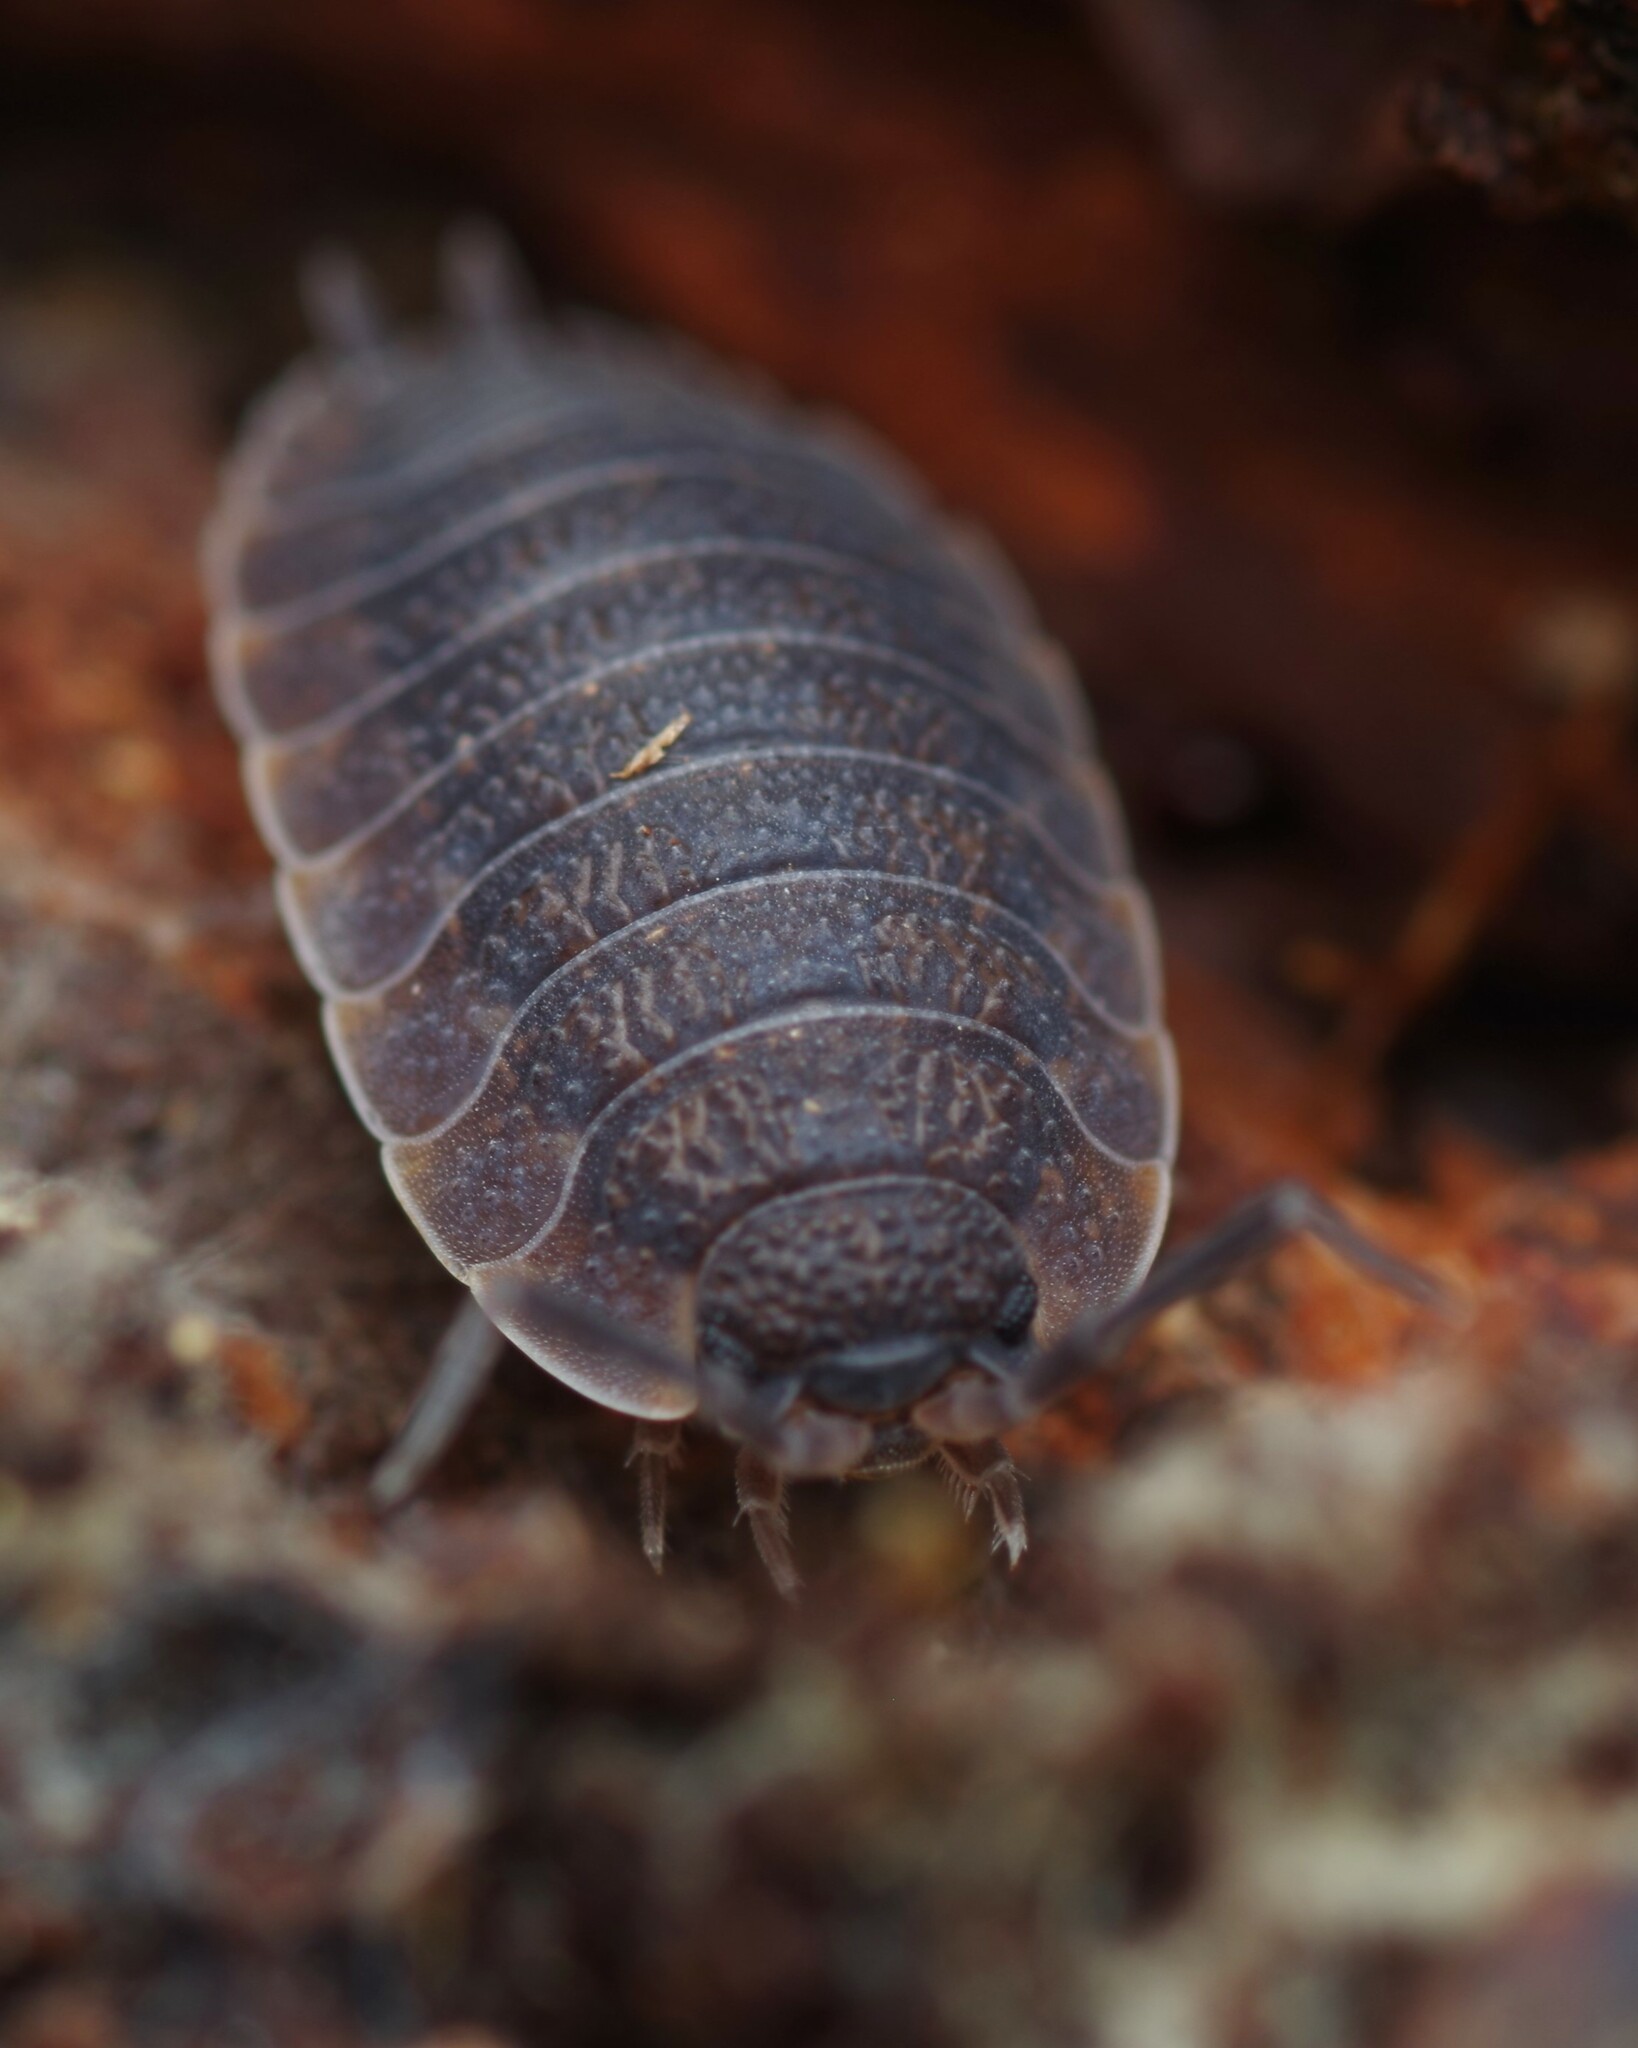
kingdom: Animalia
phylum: Arthropoda
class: Malacostraca
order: Isopoda
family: Porcellionidae
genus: Porcellio
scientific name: Porcellio scaber
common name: Common rough woodlouse
